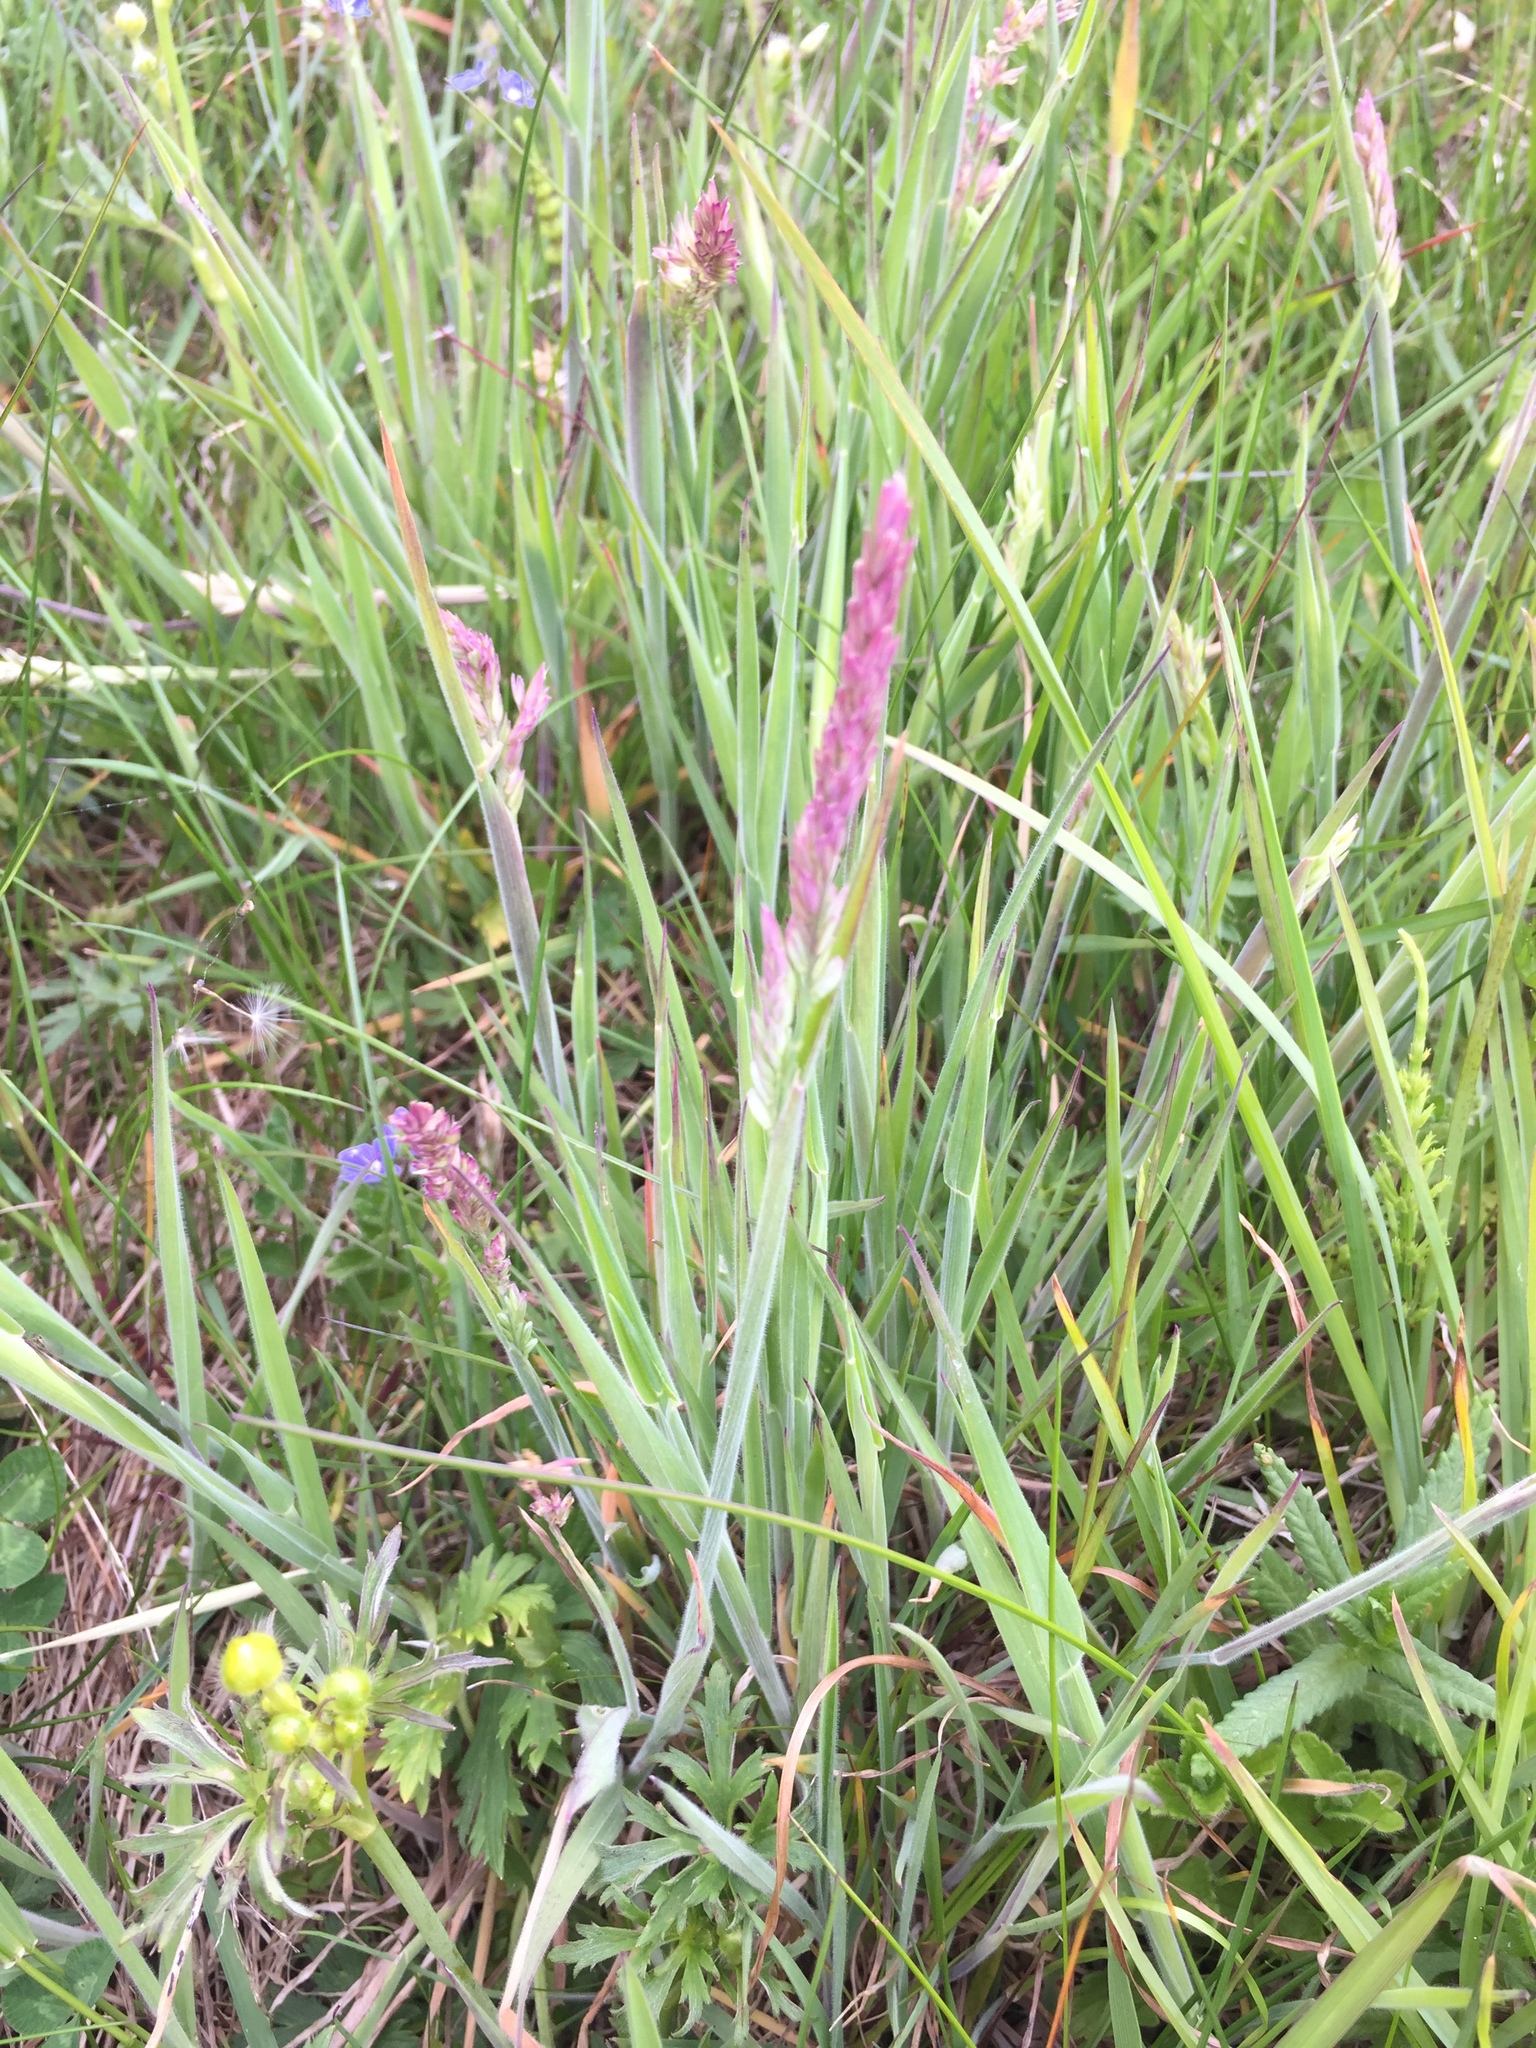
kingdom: Plantae
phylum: Tracheophyta
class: Liliopsida
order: Poales
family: Poaceae
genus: Holcus
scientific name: Holcus lanatus
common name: Yorkshire-fog
